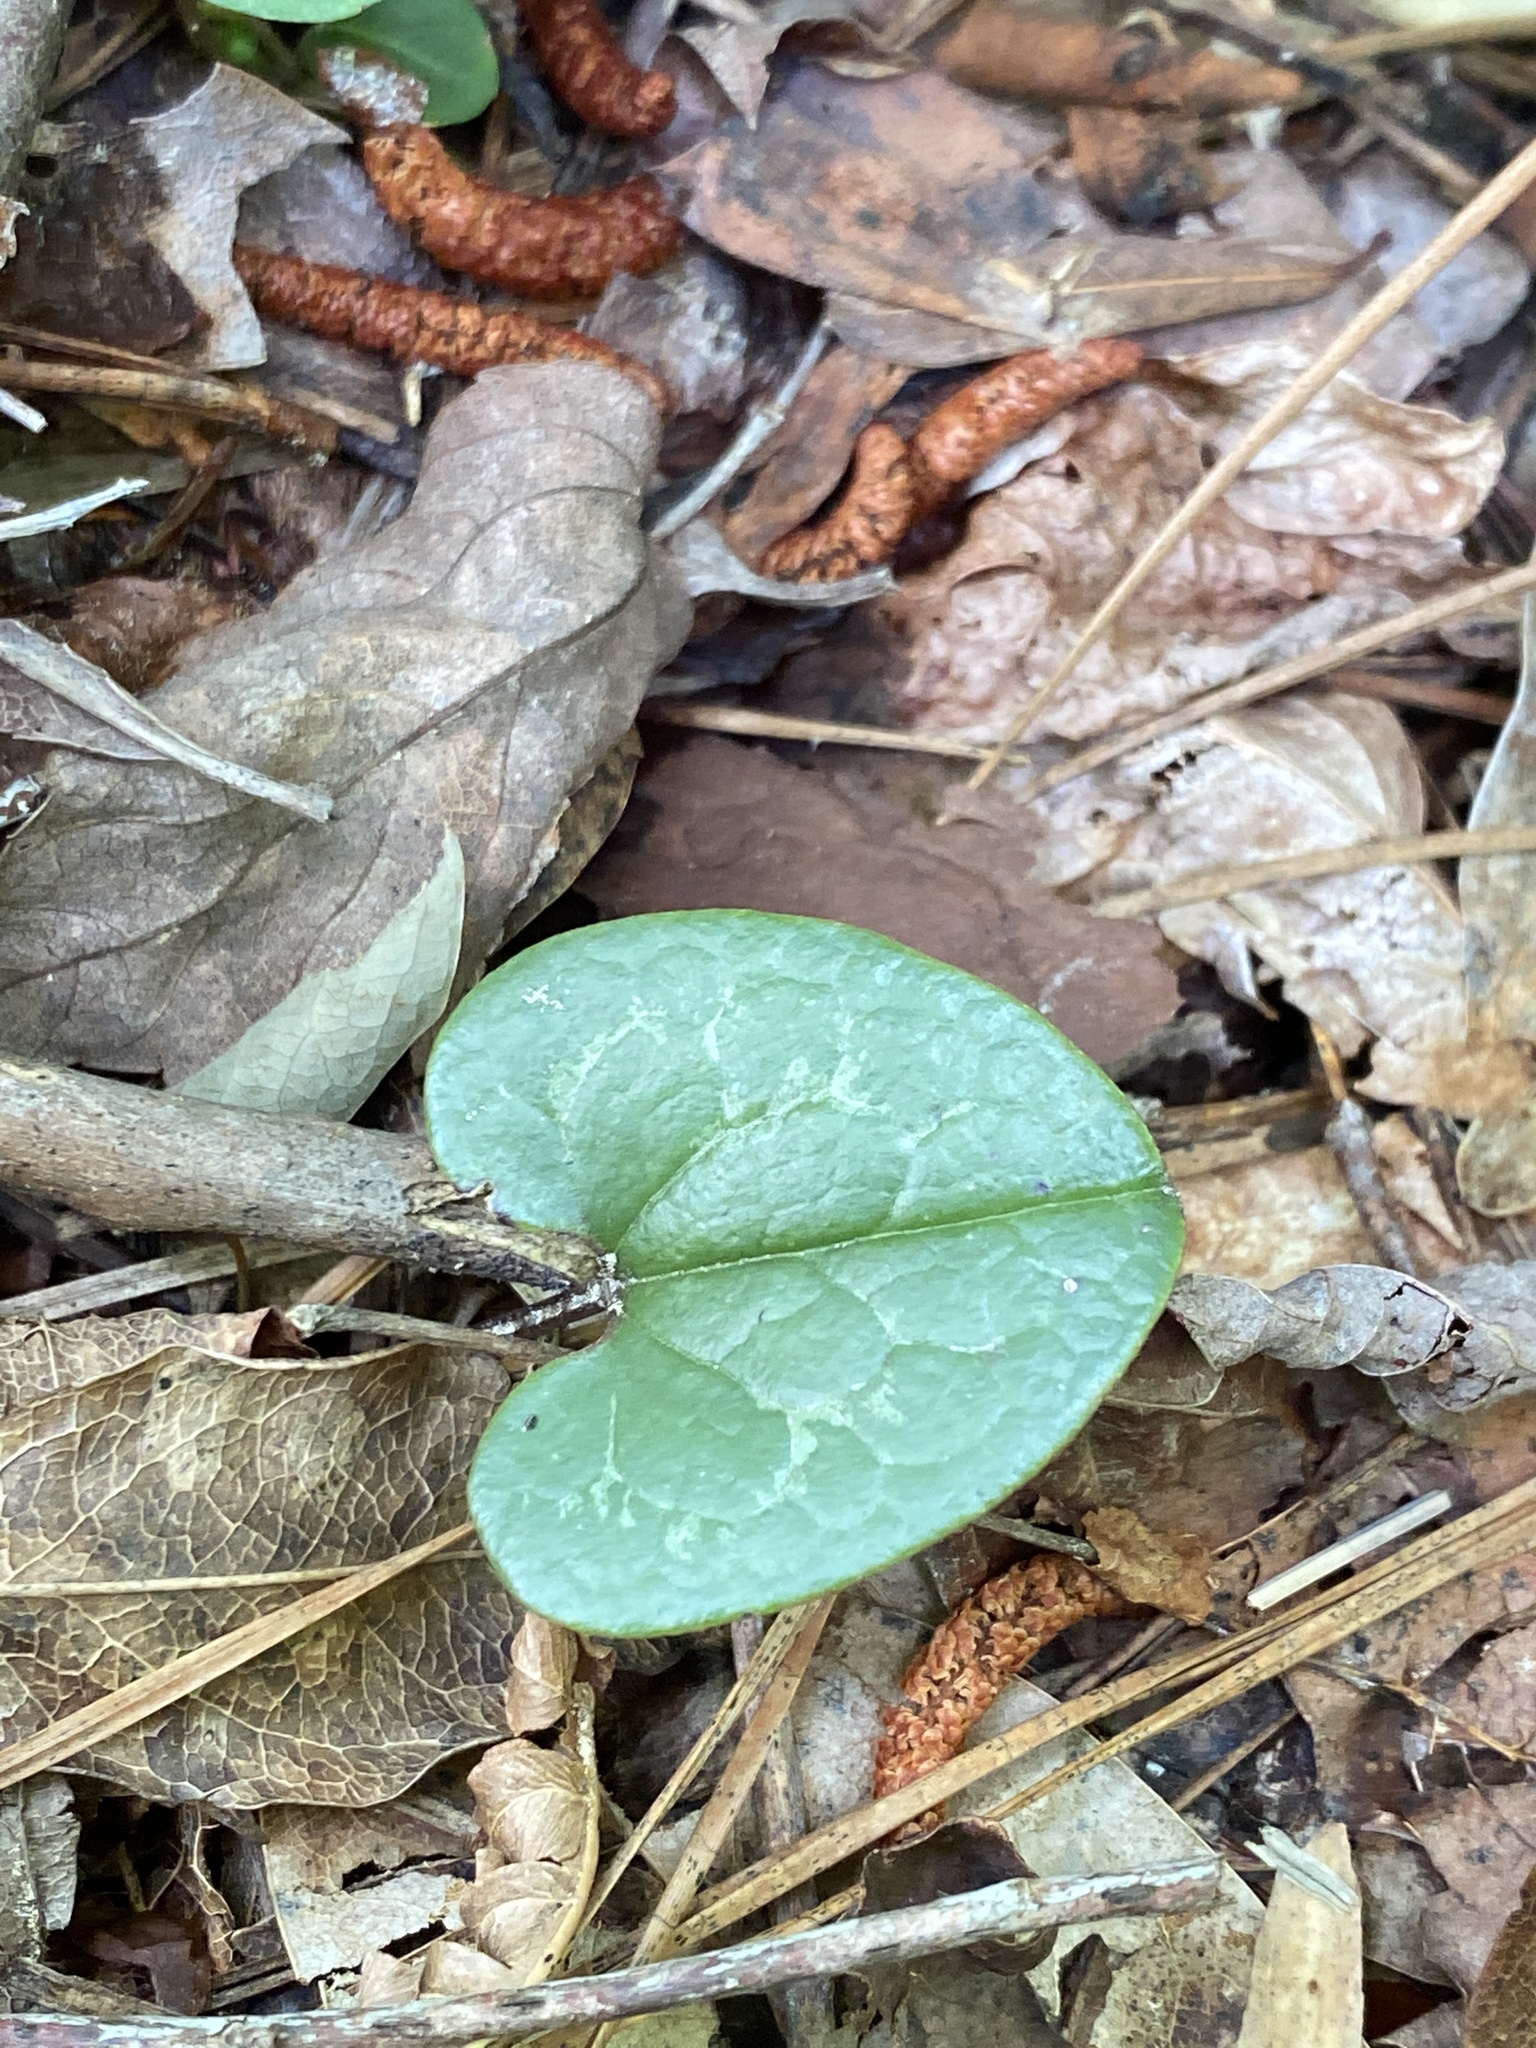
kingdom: Plantae
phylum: Tracheophyta
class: Magnoliopsida
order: Piperales
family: Aristolochiaceae
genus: Hexastylis
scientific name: Hexastylis sorriei
